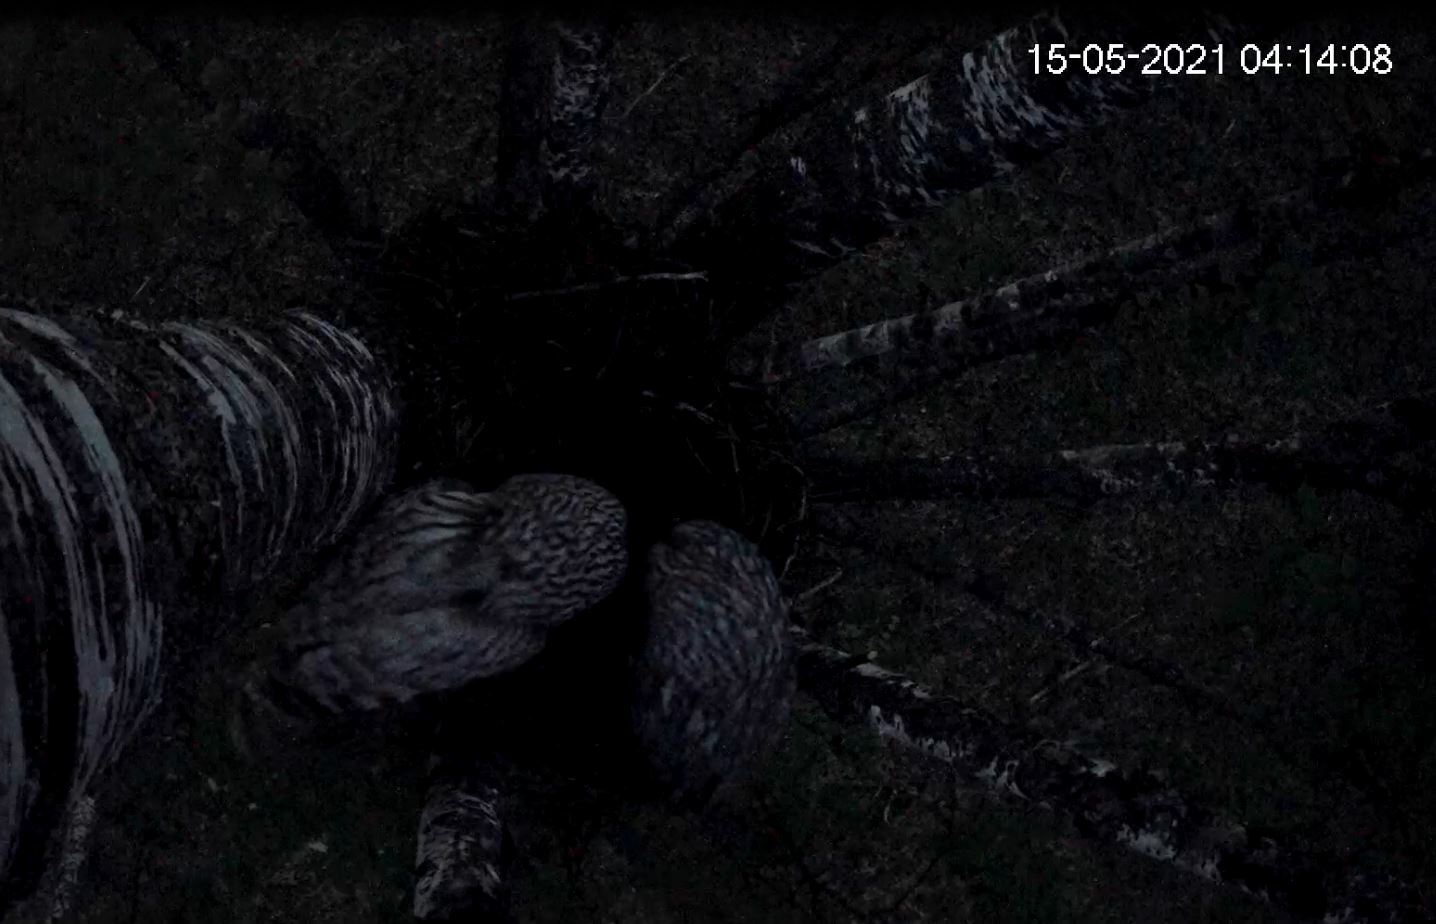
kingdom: Animalia
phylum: Chordata
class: Aves
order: Strigiformes
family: Strigidae
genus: Strix
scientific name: Strix uralensis
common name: Ural owl
